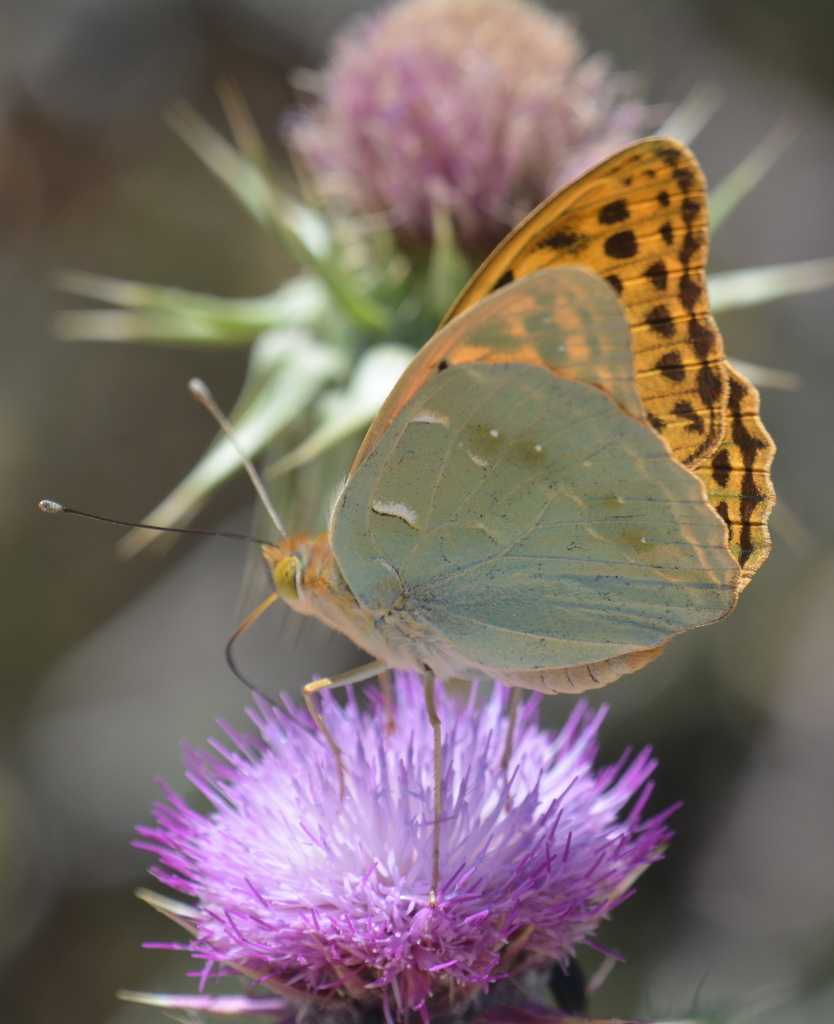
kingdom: Animalia
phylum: Arthropoda
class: Insecta
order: Lepidoptera
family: Nymphalidae
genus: Damora
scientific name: Damora pandora
